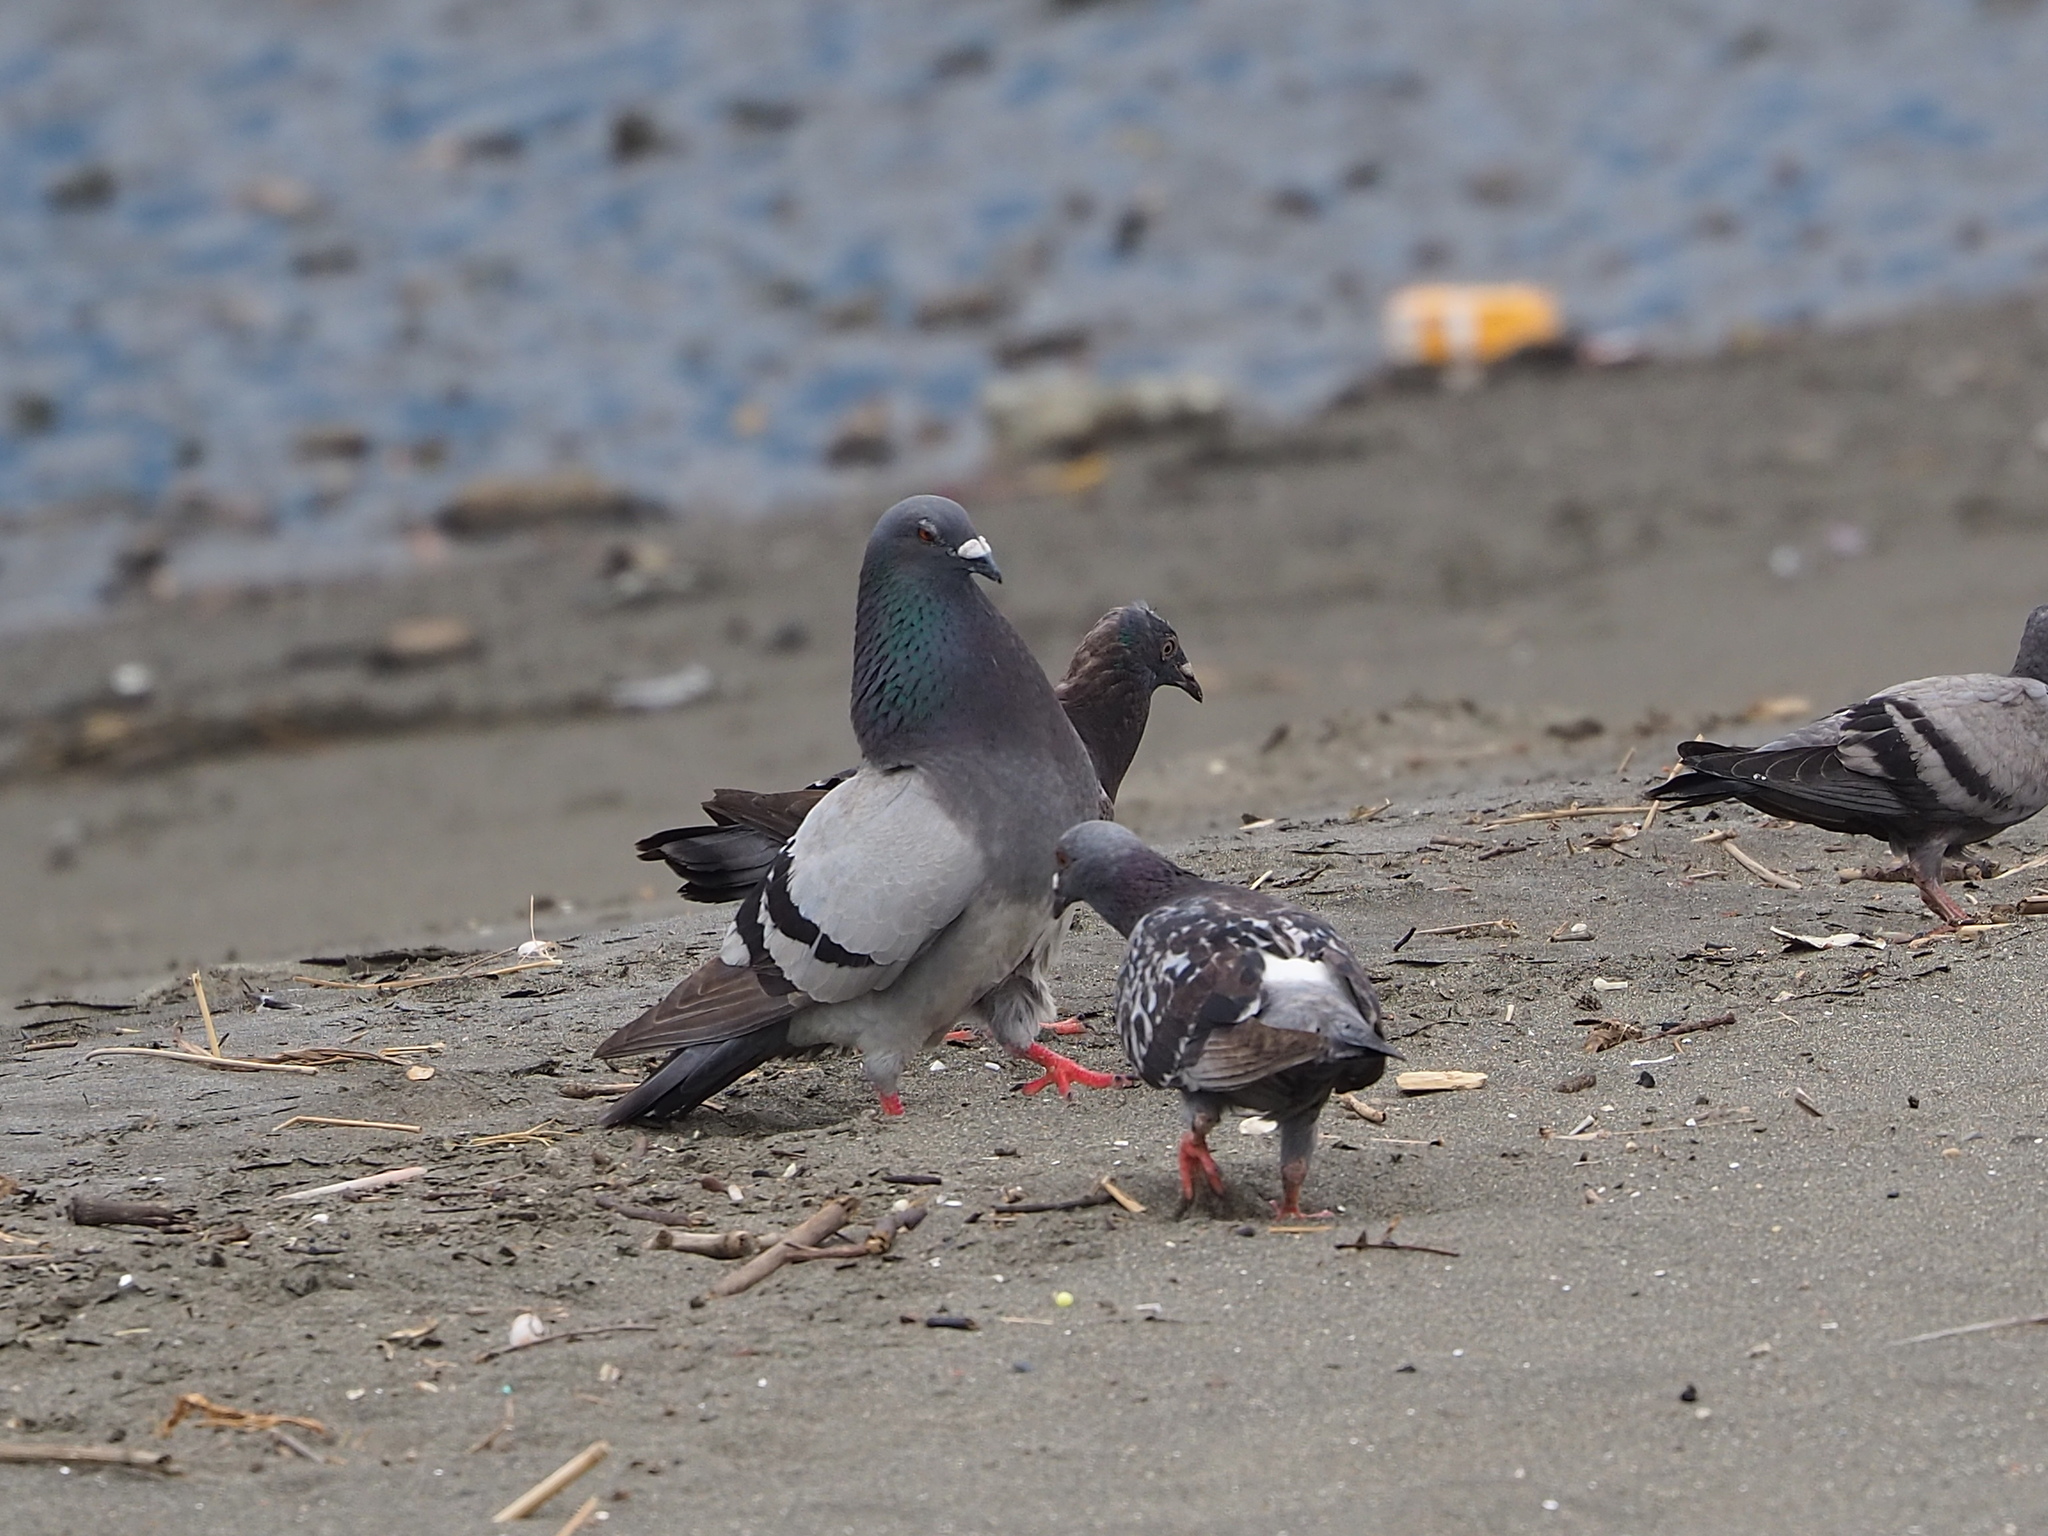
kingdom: Animalia
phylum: Chordata
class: Aves
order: Columbiformes
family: Columbidae
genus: Columba
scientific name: Columba livia
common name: Rock pigeon
